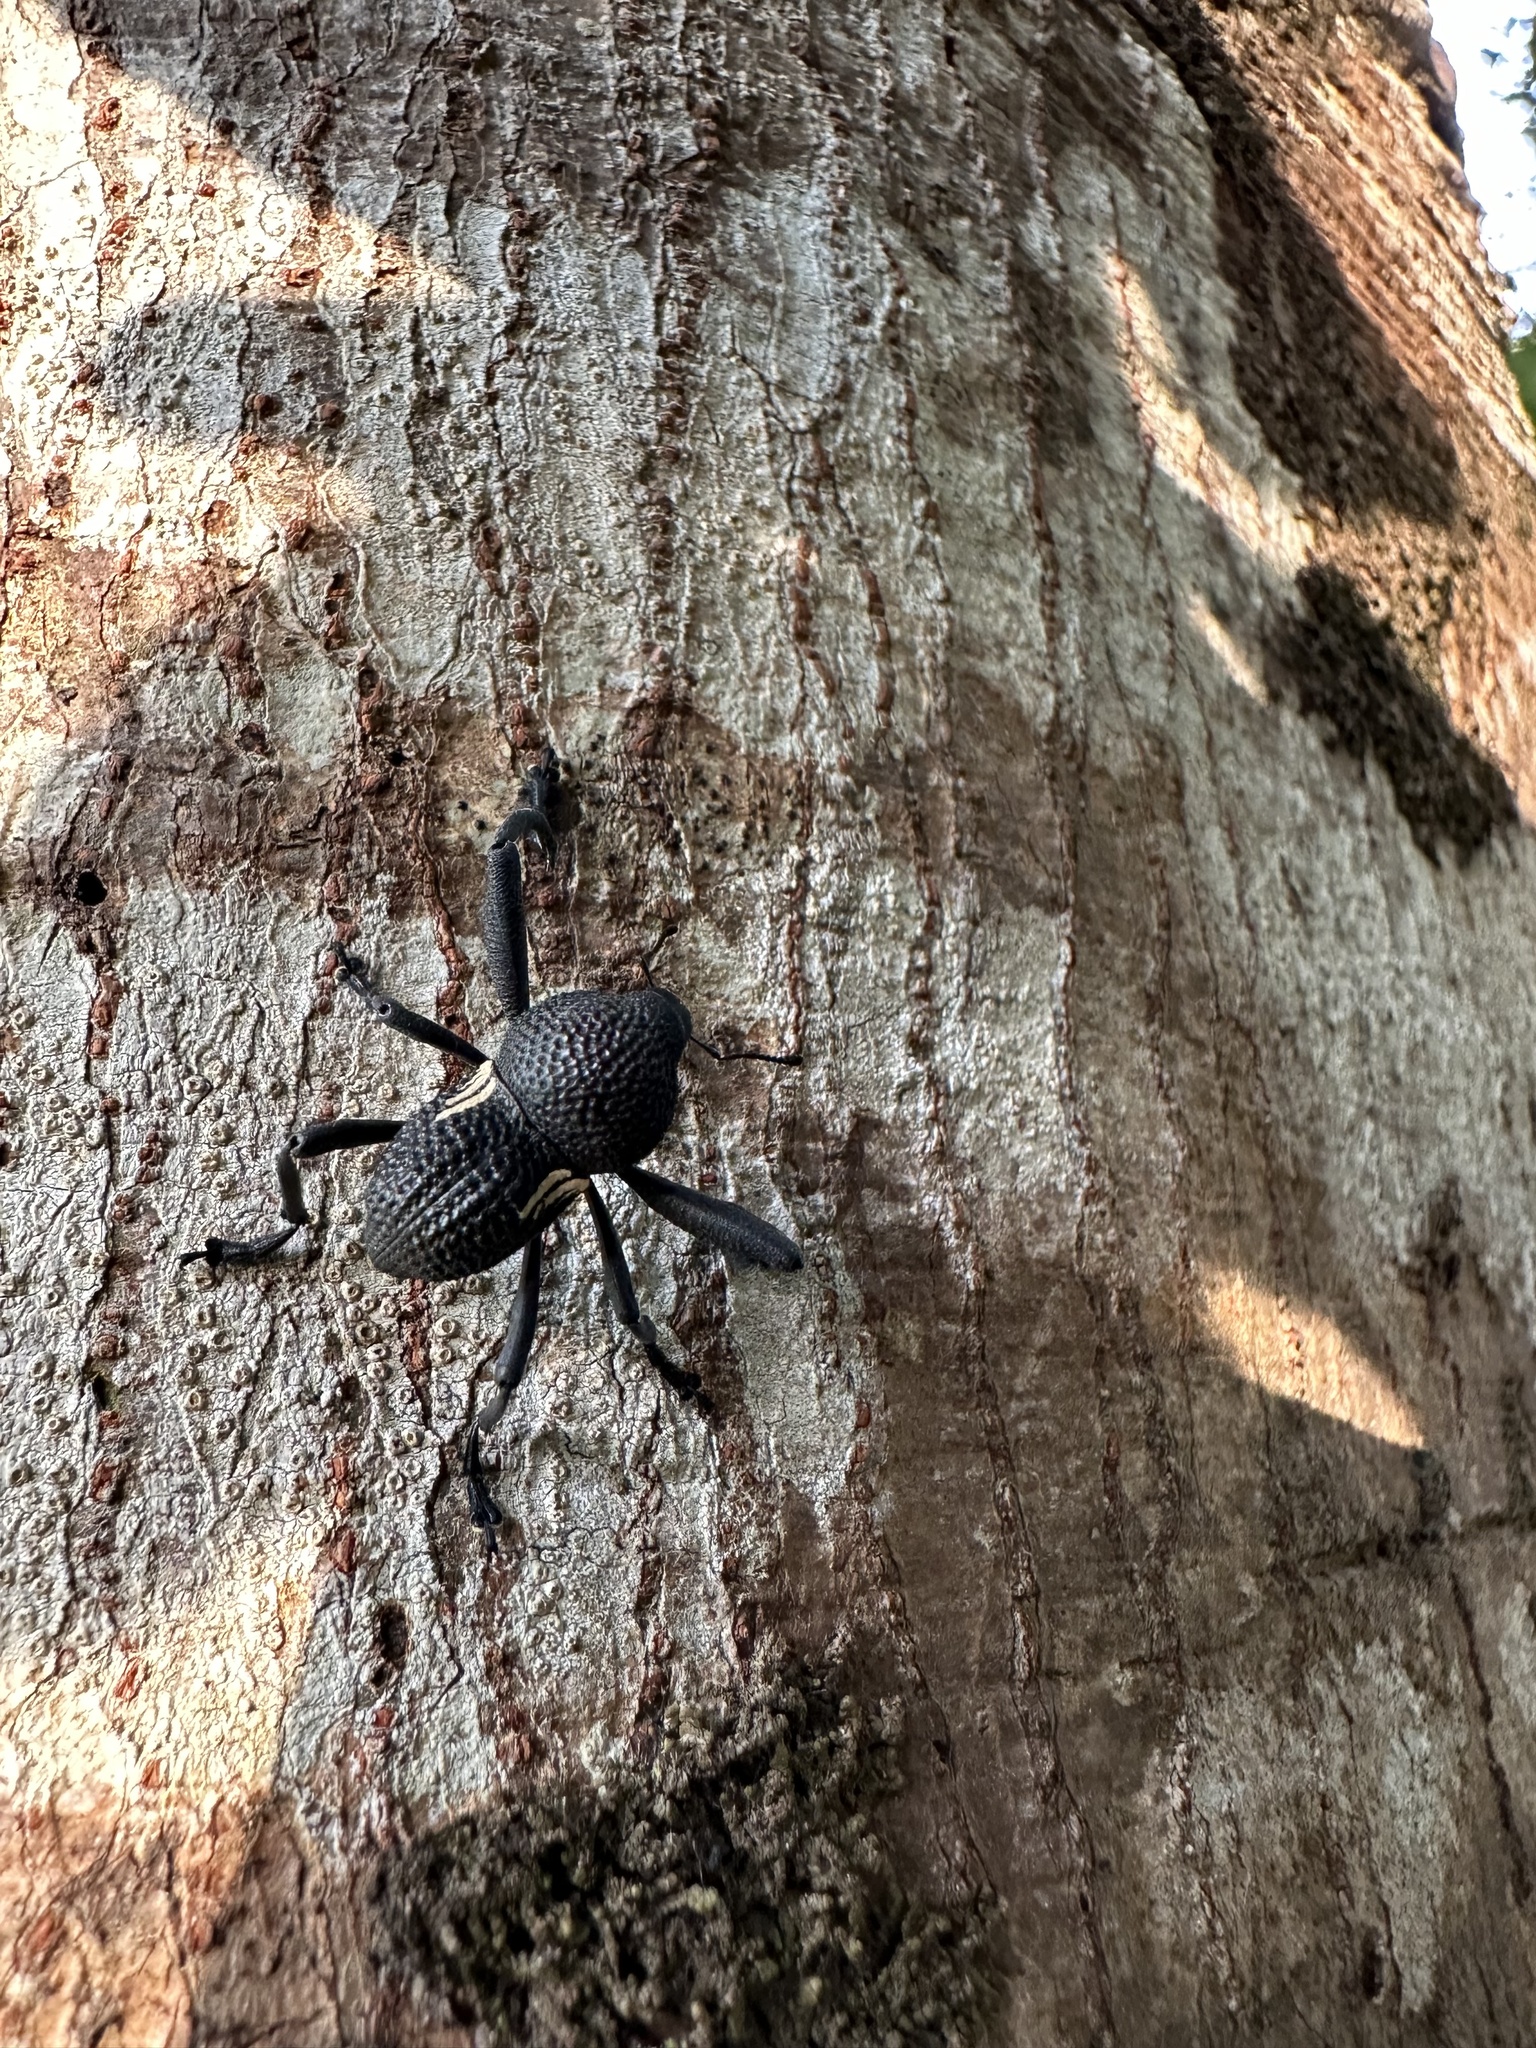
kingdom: Animalia
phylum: Arthropoda
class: Insecta
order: Coleoptera
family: Curculionidae
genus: Rhyephenes
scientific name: Rhyephenes humeralis
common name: Araè±ita chilena del pino
